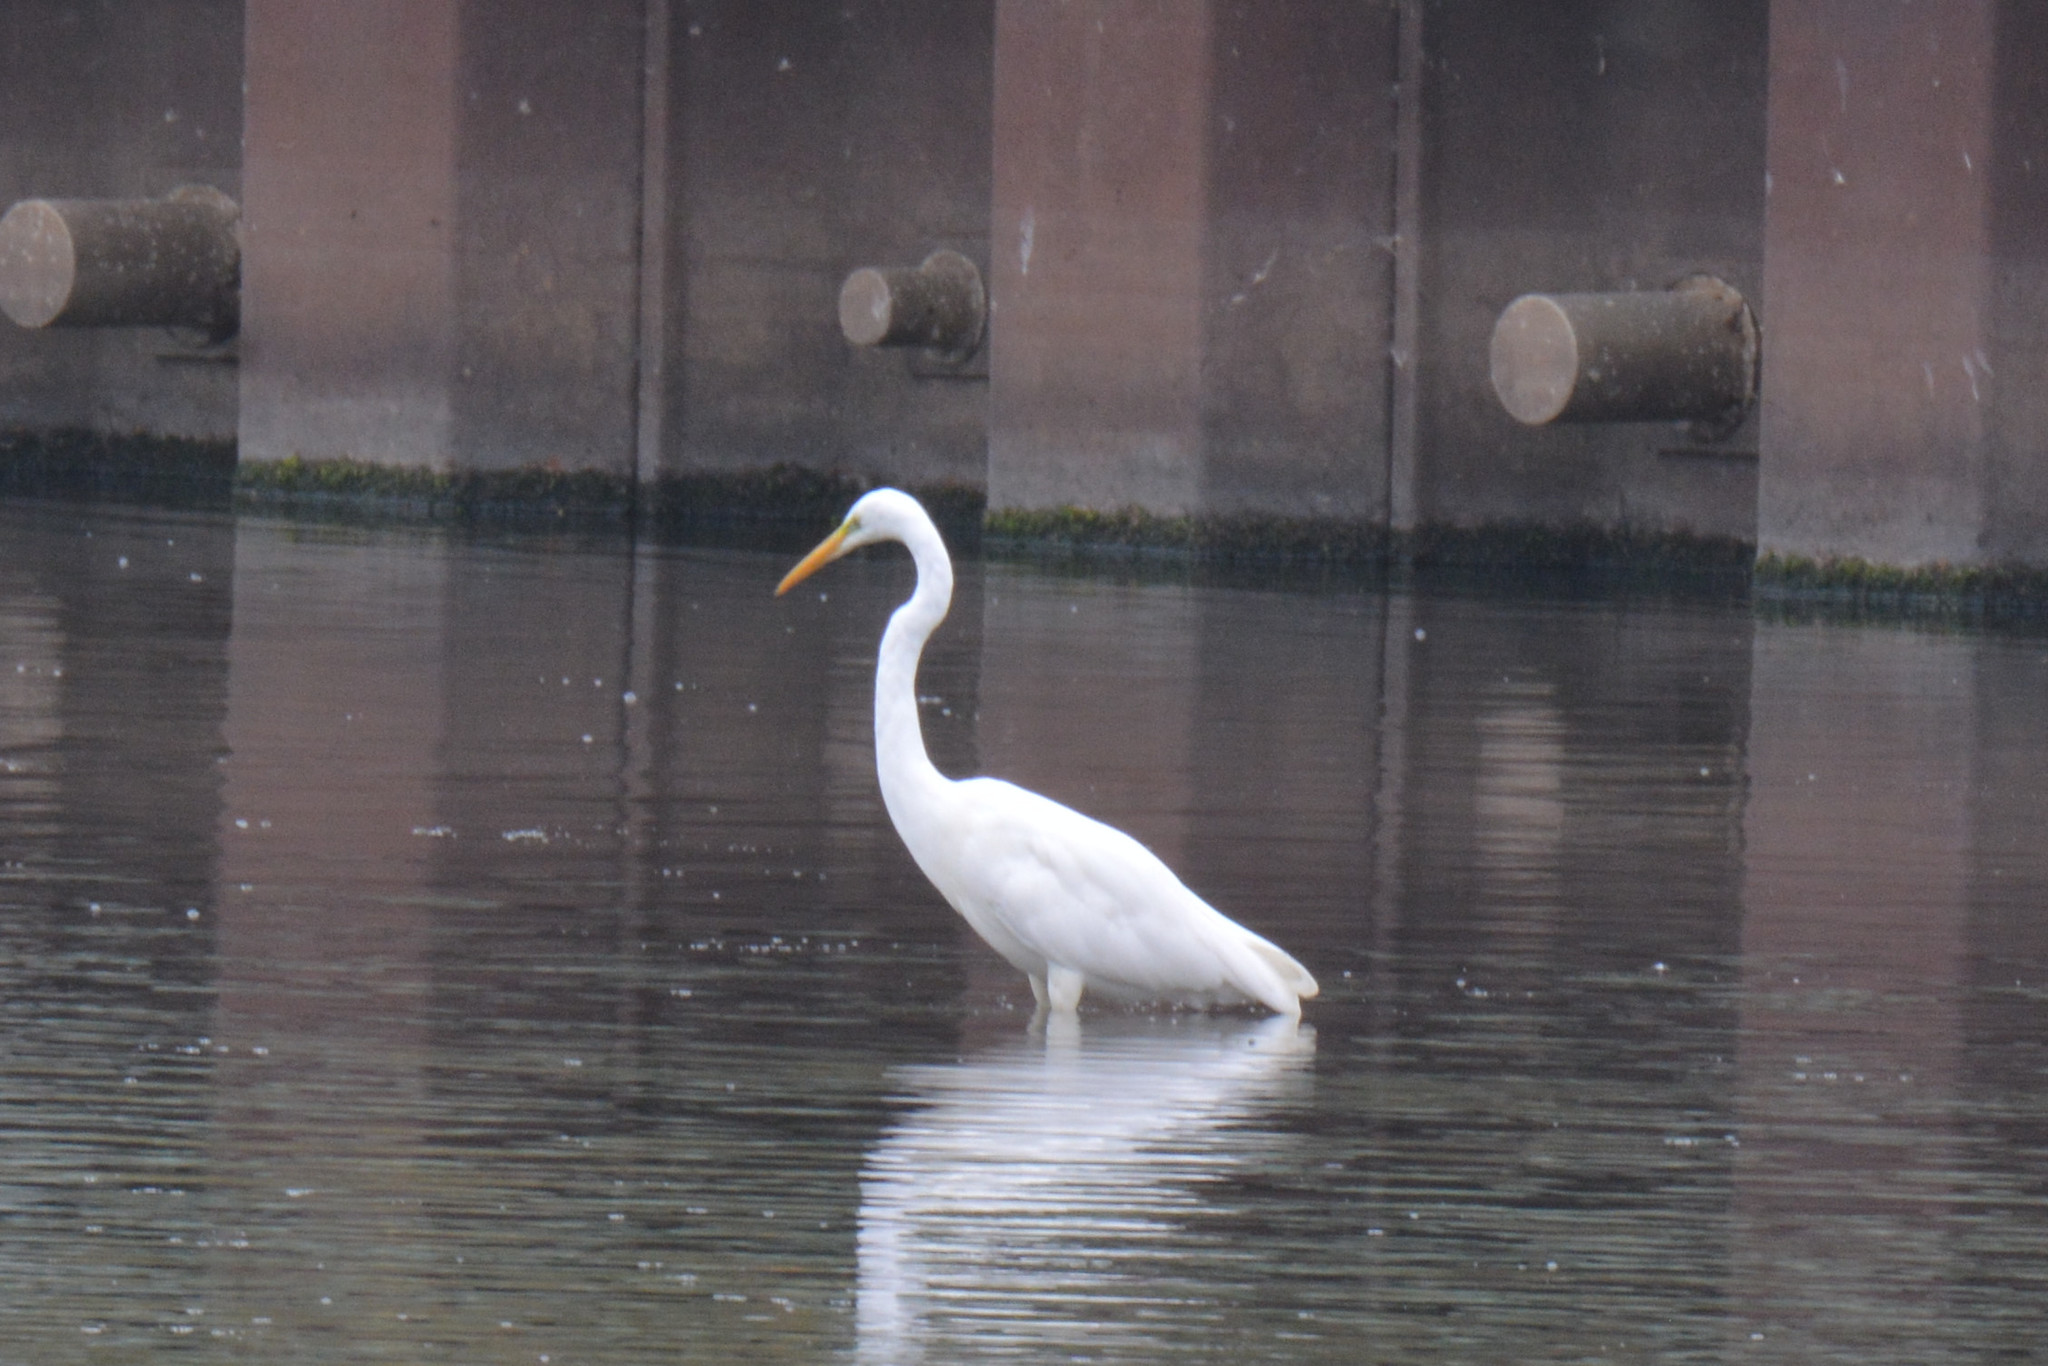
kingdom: Animalia
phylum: Chordata
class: Aves
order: Pelecaniformes
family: Ardeidae
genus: Ardea
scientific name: Ardea alba
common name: Great egret
